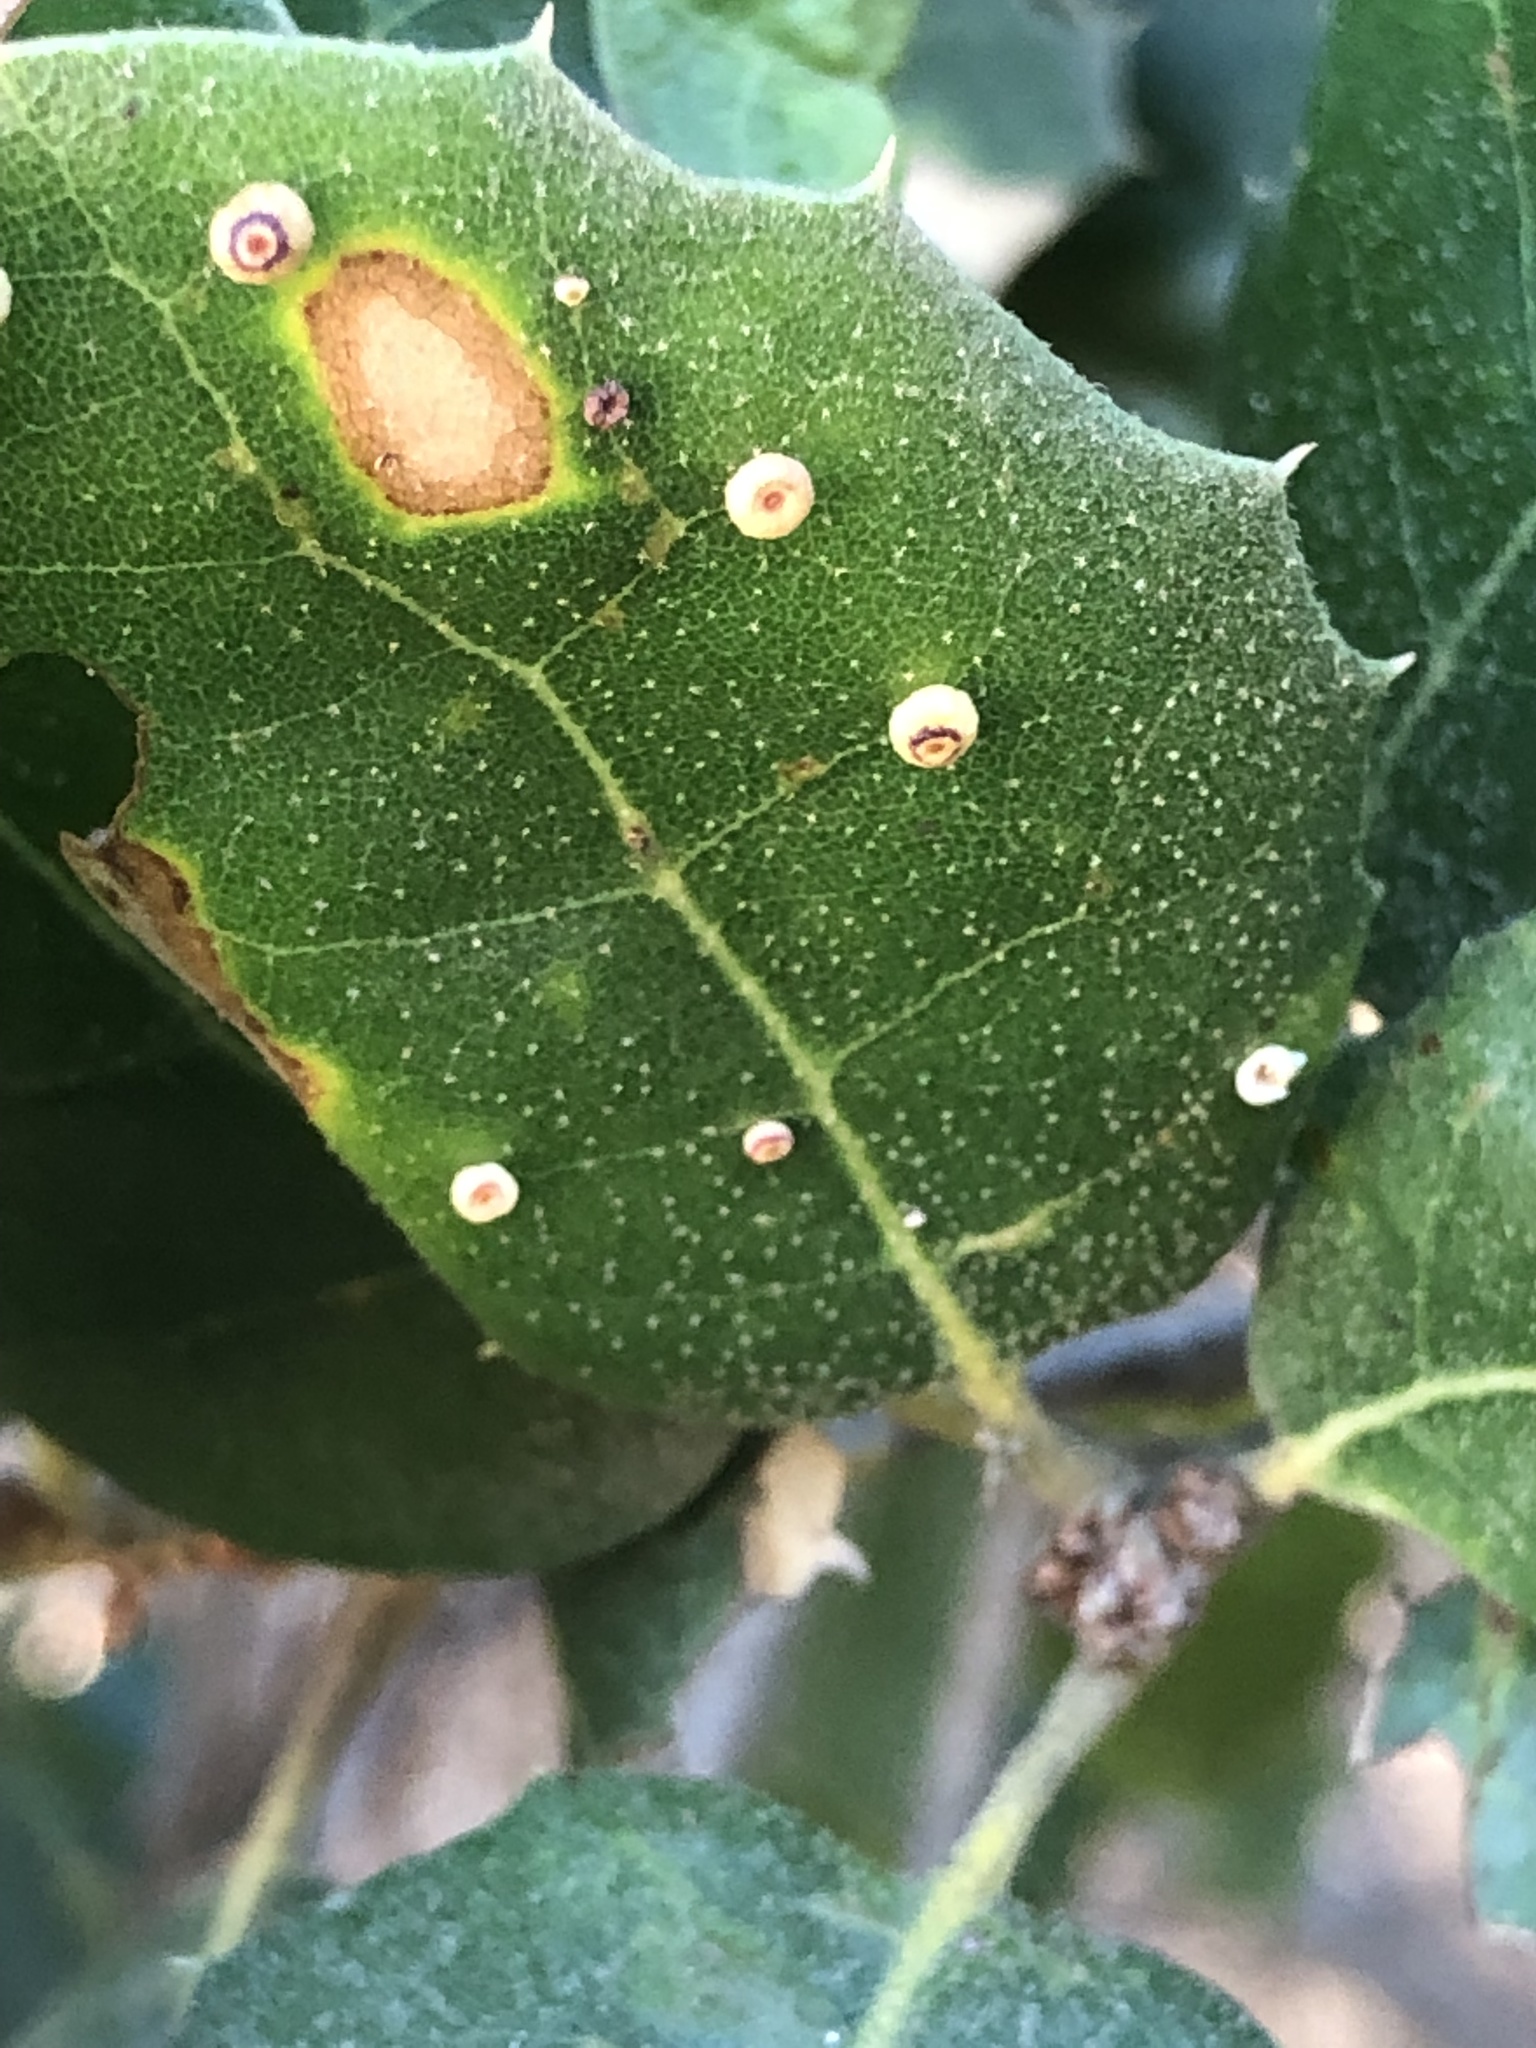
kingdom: Animalia
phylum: Arthropoda
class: Insecta
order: Hymenoptera
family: Cynipidae
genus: Dryocosmus
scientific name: Dryocosmus
